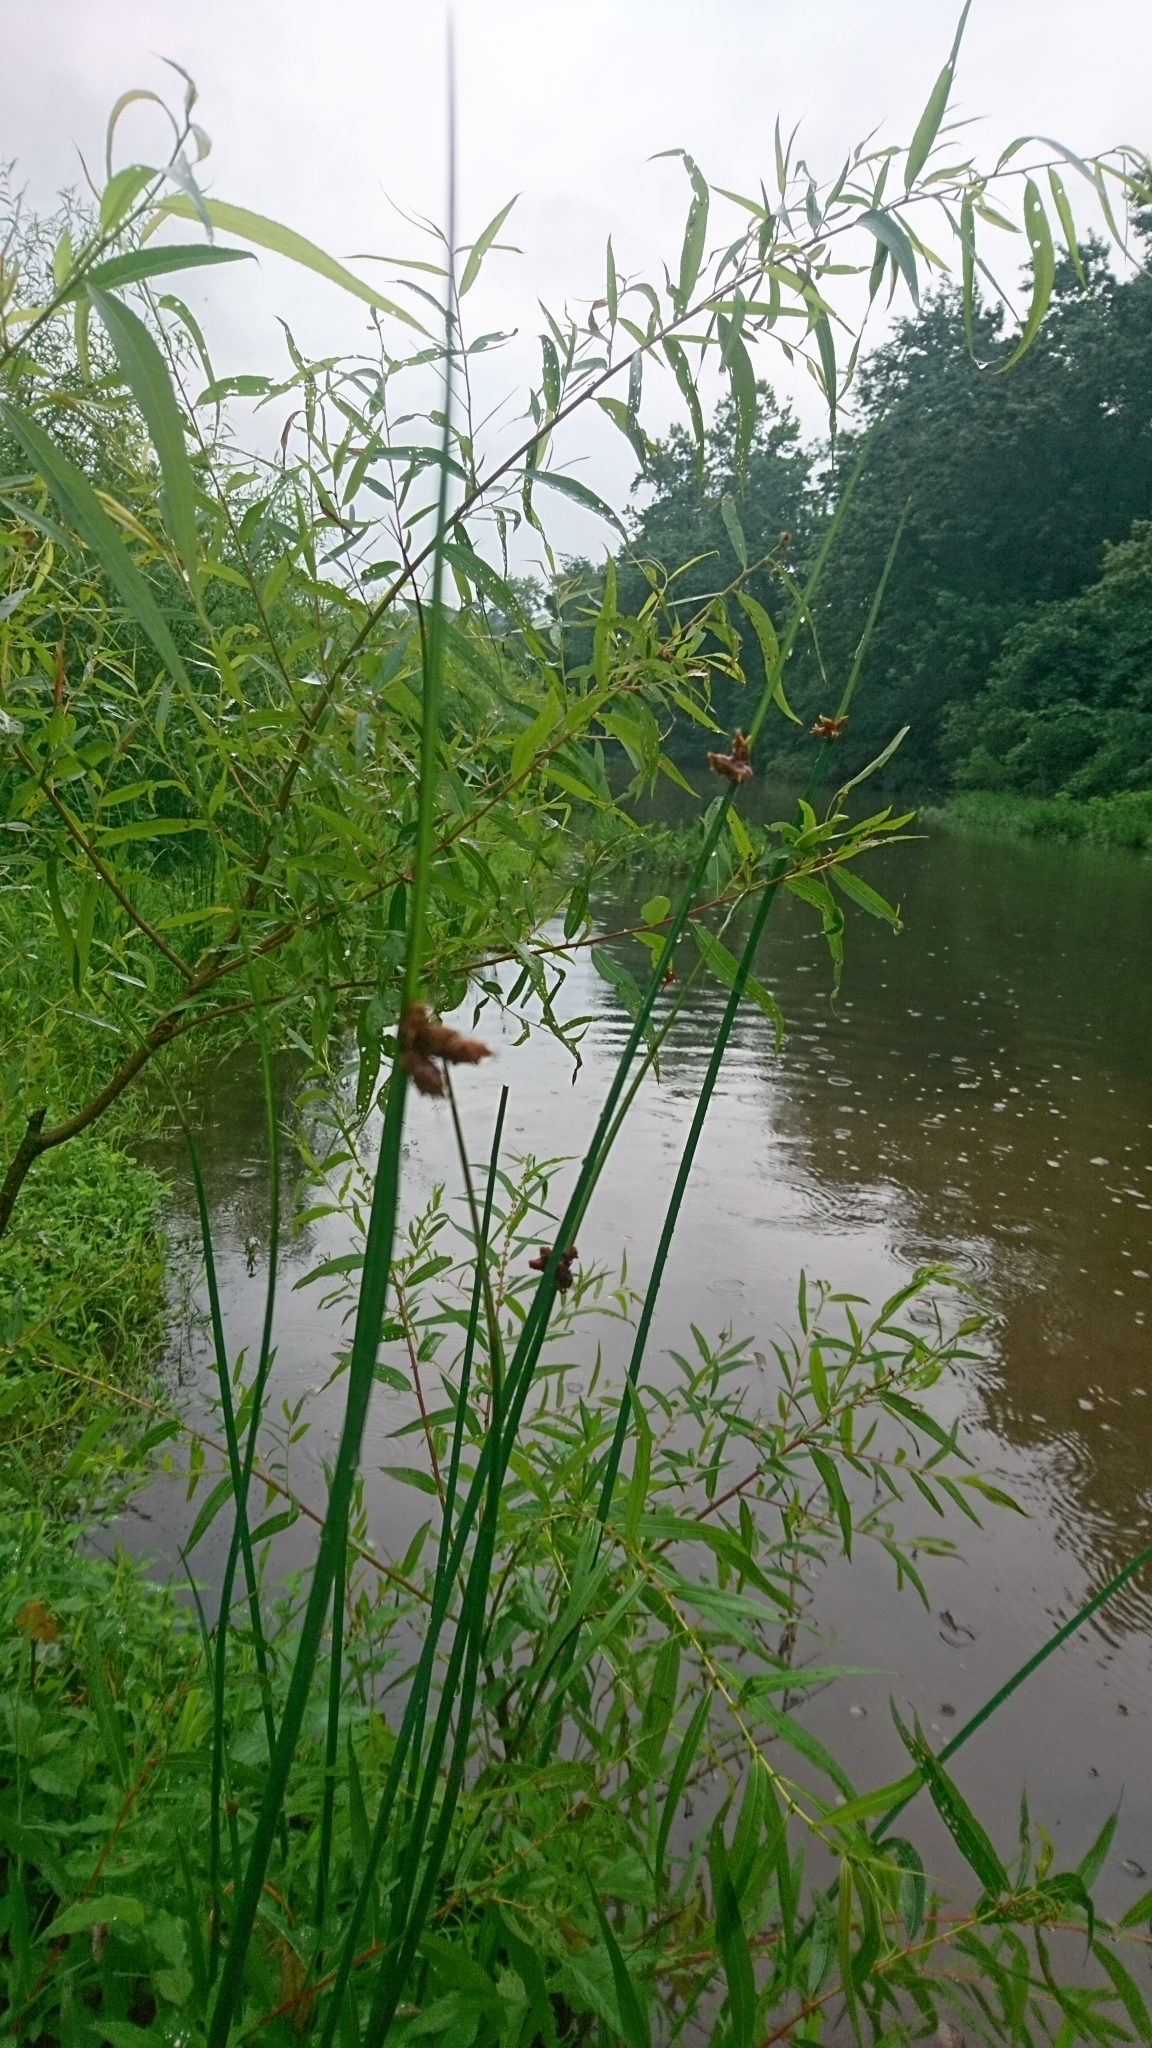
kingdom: Plantae
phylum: Tracheophyta
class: Liliopsida
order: Poales
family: Cyperaceae
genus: Schoenoplectus
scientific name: Schoenoplectus pungens
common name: Sharp club-rush
